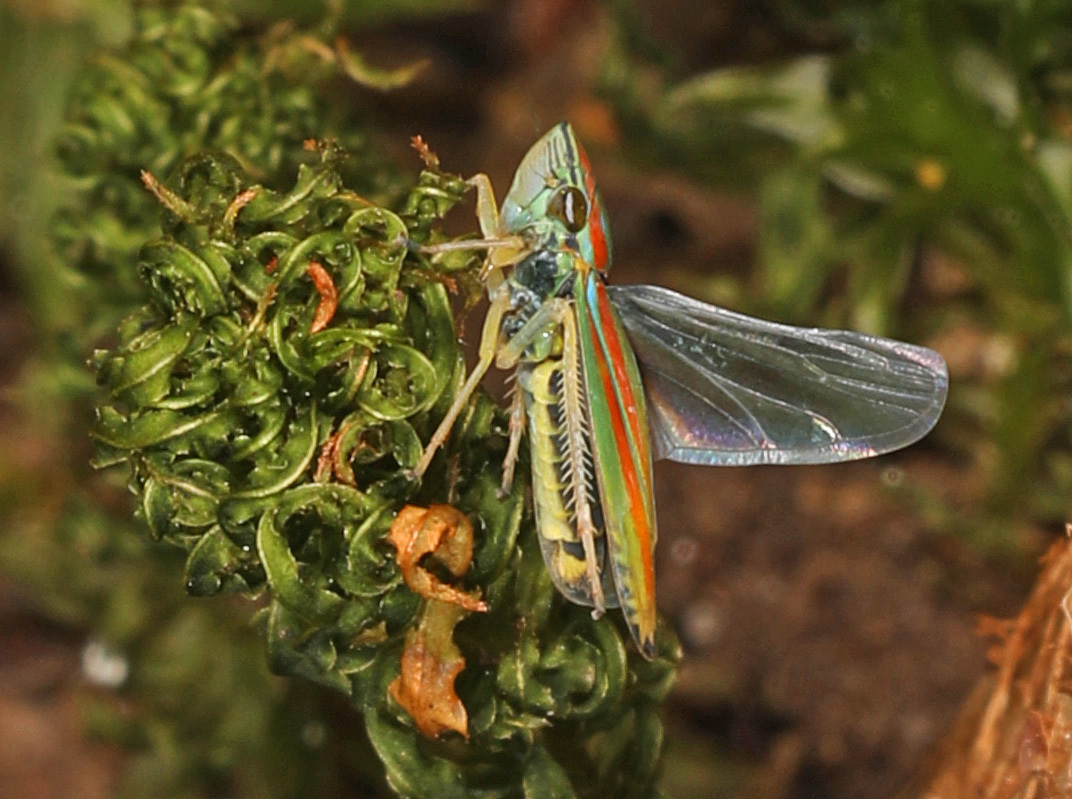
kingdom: Animalia
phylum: Arthropoda
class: Insecta
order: Hemiptera
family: Cicadellidae
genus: Graphocephala
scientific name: Graphocephala versuta
